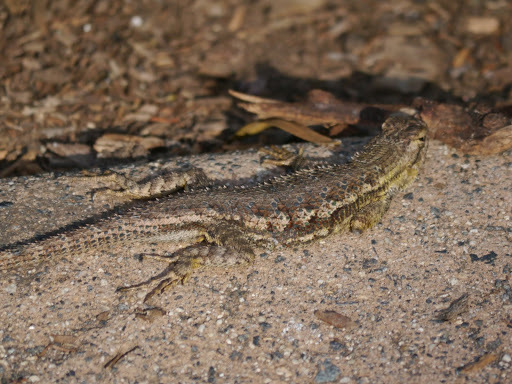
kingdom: Animalia
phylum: Chordata
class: Squamata
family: Phrynosomatidae
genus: Sceloporus
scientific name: Sceloporus occidentalis
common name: Western fence lizard
